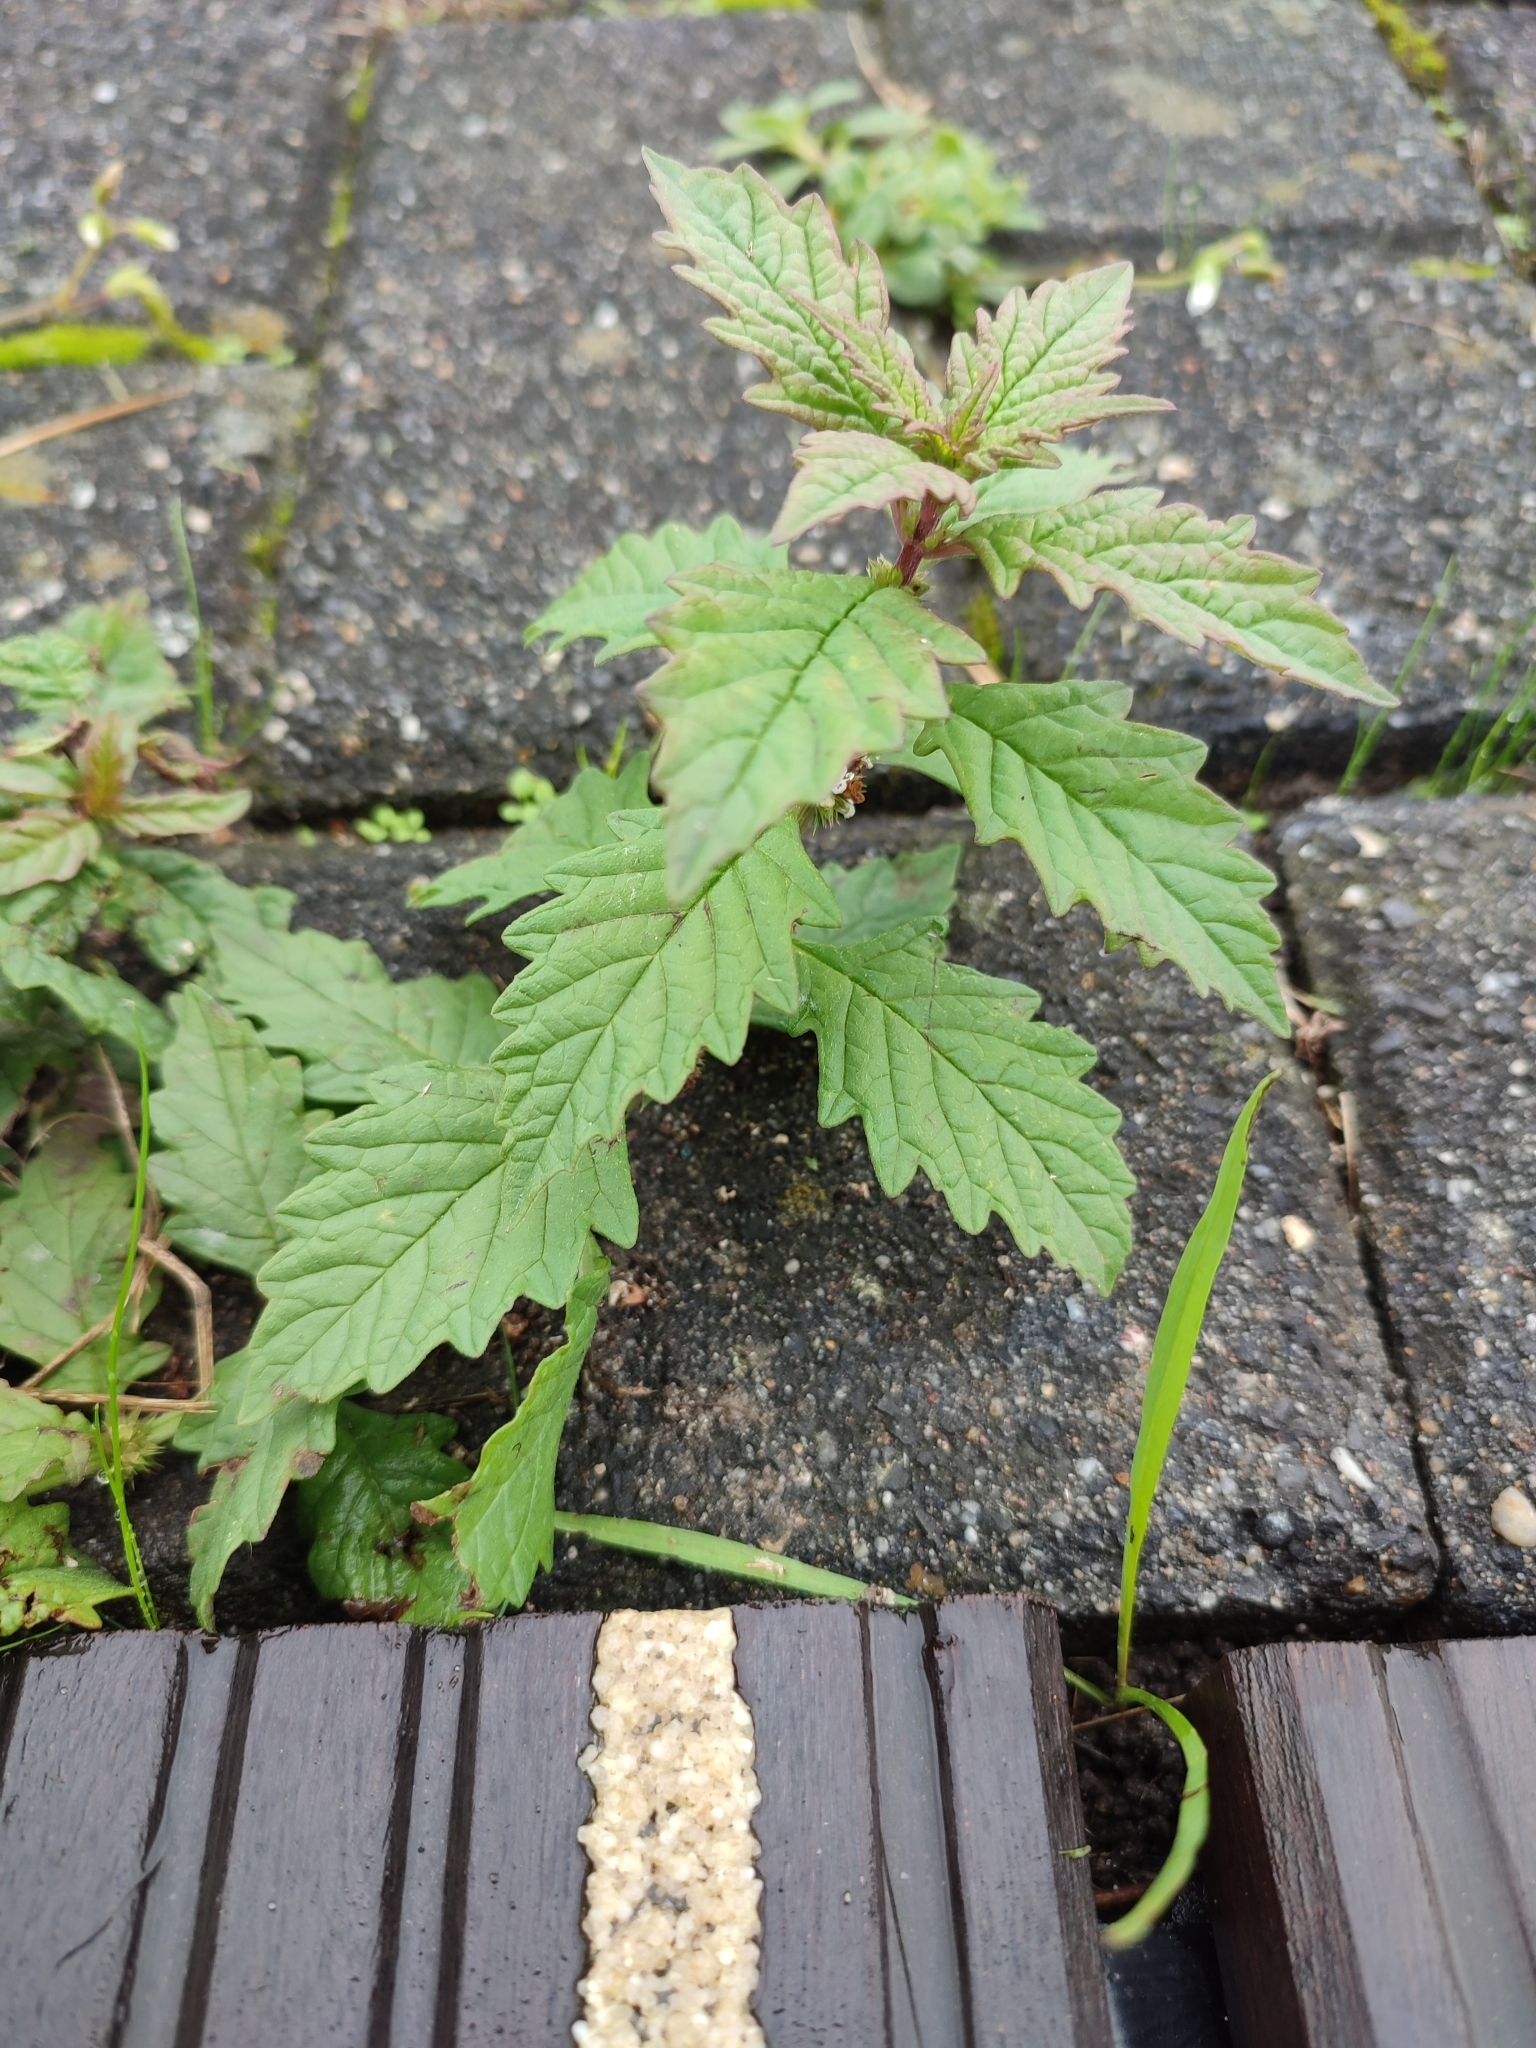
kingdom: Plantae
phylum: Tracheophyta
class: Magnoliopsida
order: Lamiales
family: Lamiaceae
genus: Lycopus
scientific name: Lycopus europaeus
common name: European bugleweed
